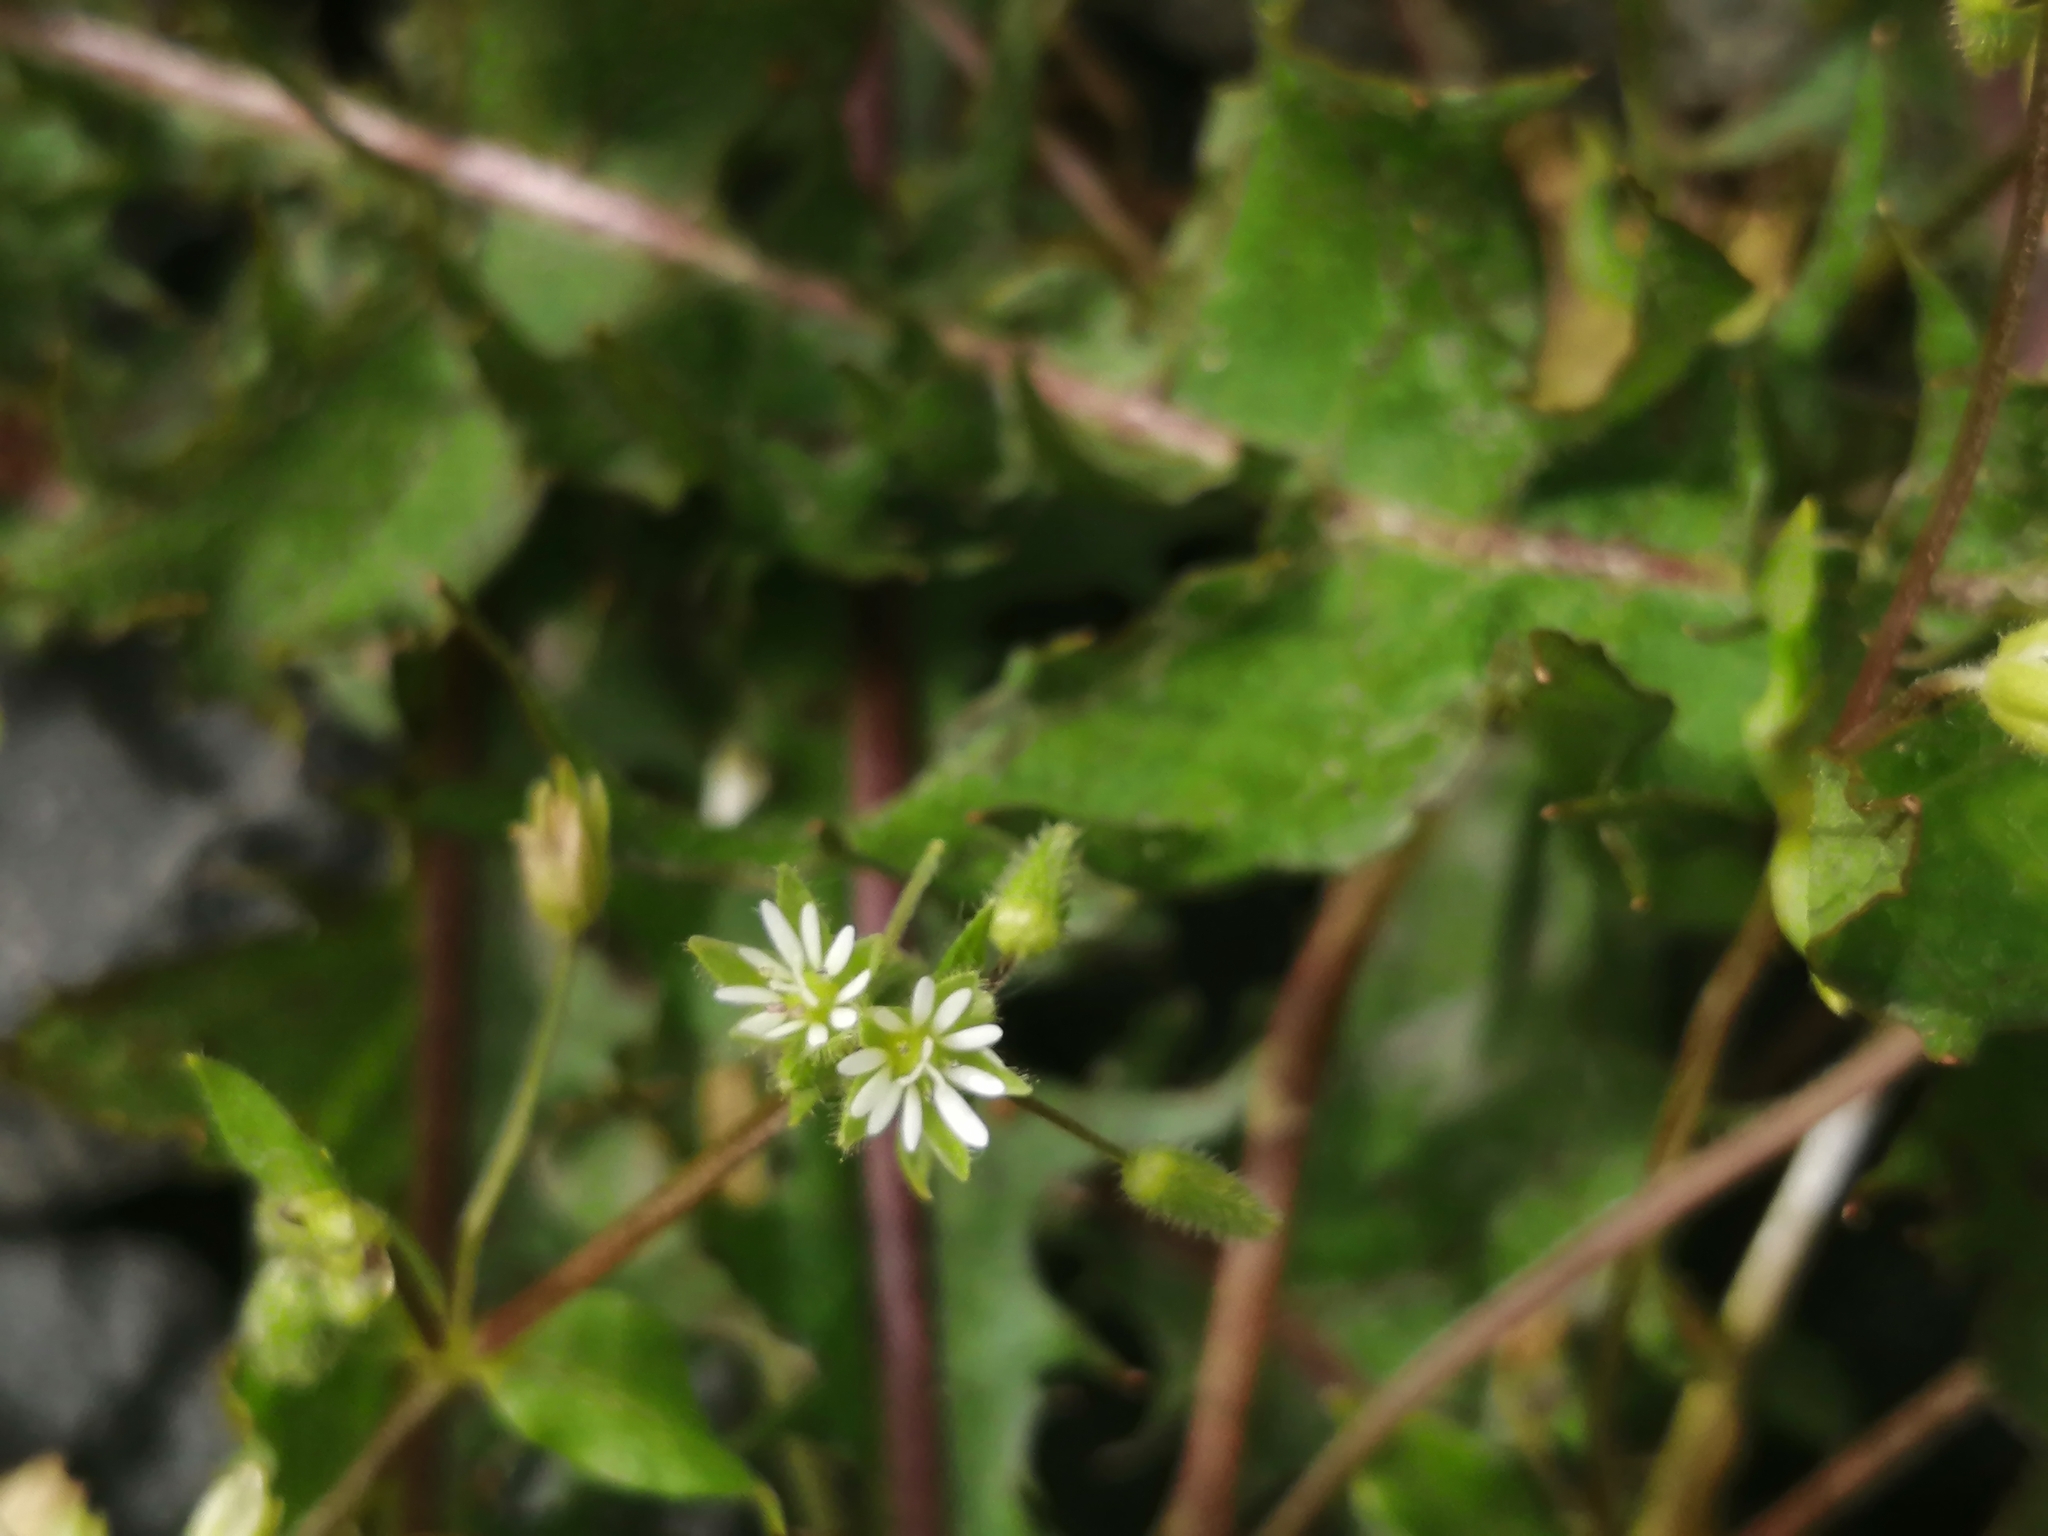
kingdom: Plantae
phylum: Tracheophyta
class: Magnoliopsida
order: Caryophyllales
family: Caryophyllaceae
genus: Stellaria
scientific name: Stellaria media
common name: Common chickweed
